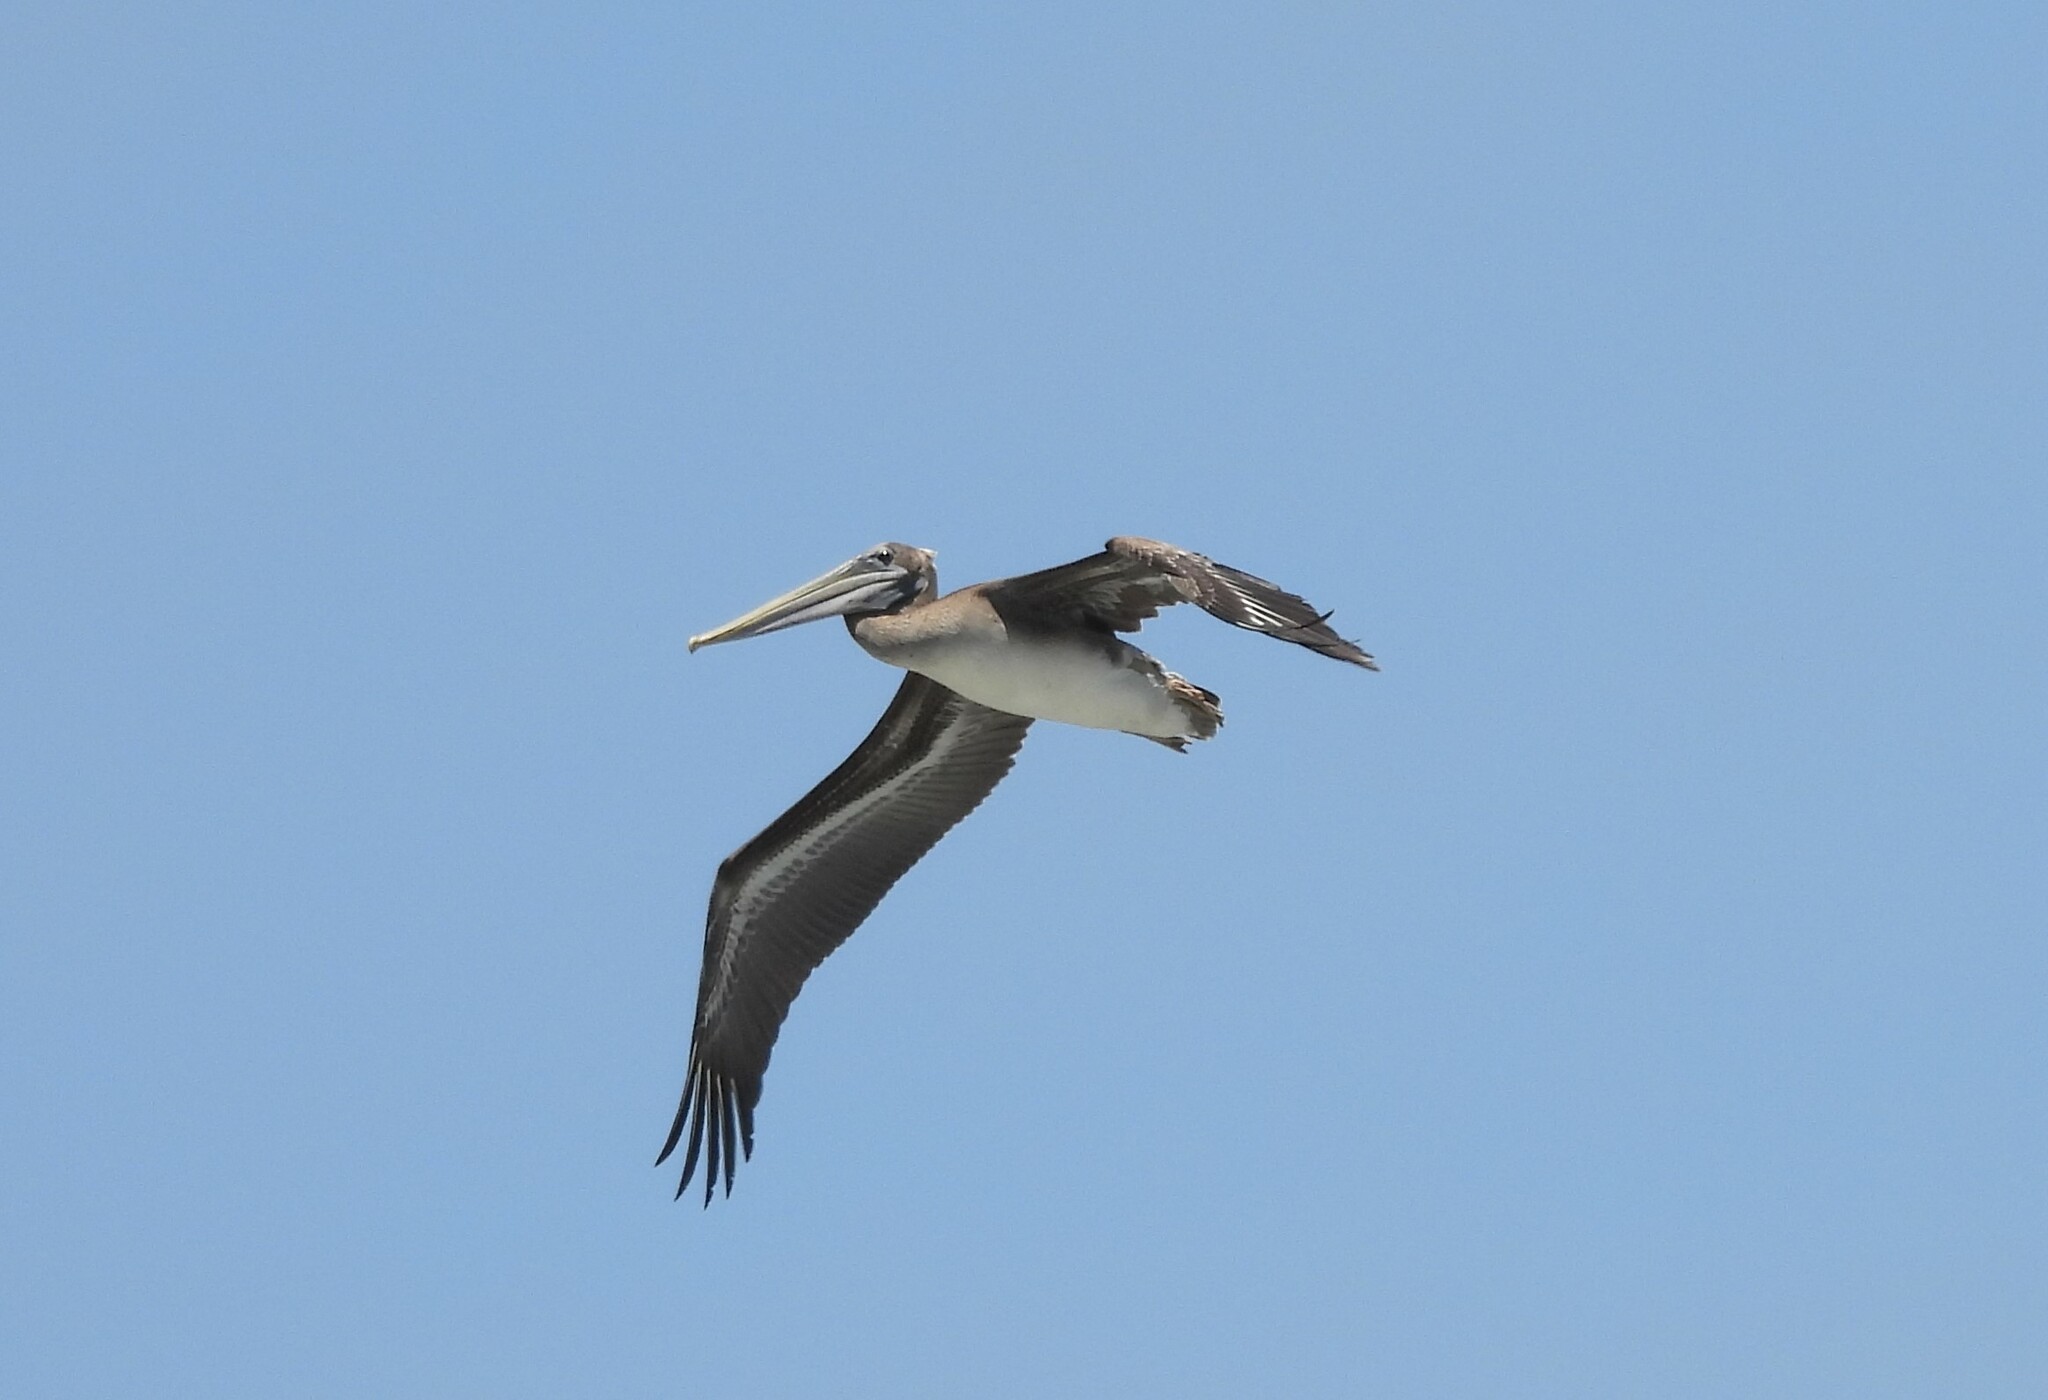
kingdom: Animalia
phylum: Chordata
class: Aves
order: Pelecaniformes
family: Pelecanidae
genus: Pelecanus
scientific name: Pelecanus occidentalis
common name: Brown pelican
